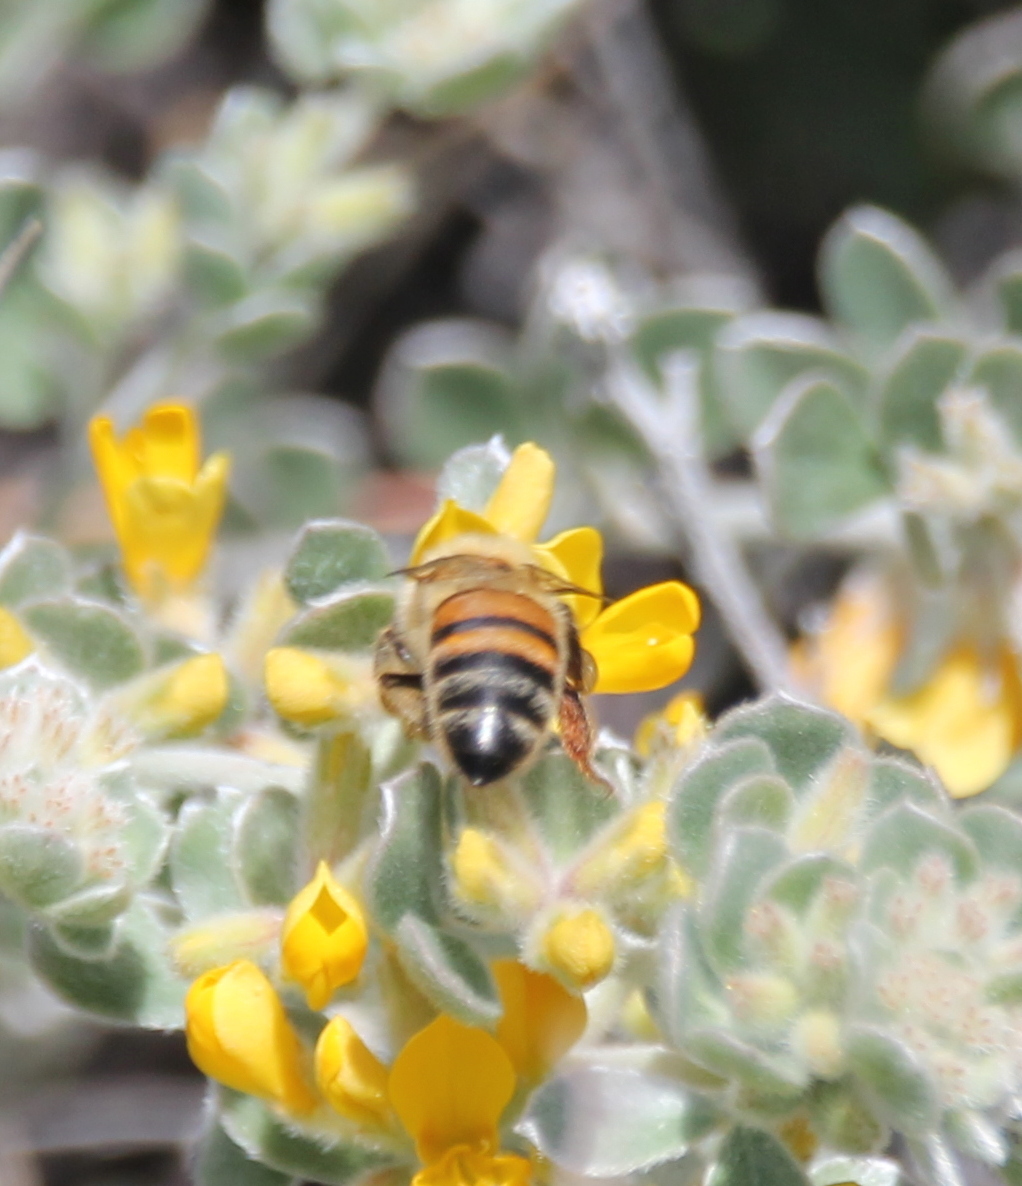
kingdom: Animalia
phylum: Arthropoda
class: Insecta
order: Hymenoptera
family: Apidae
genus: Apis
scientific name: Apis mellifera
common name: Honey bee
